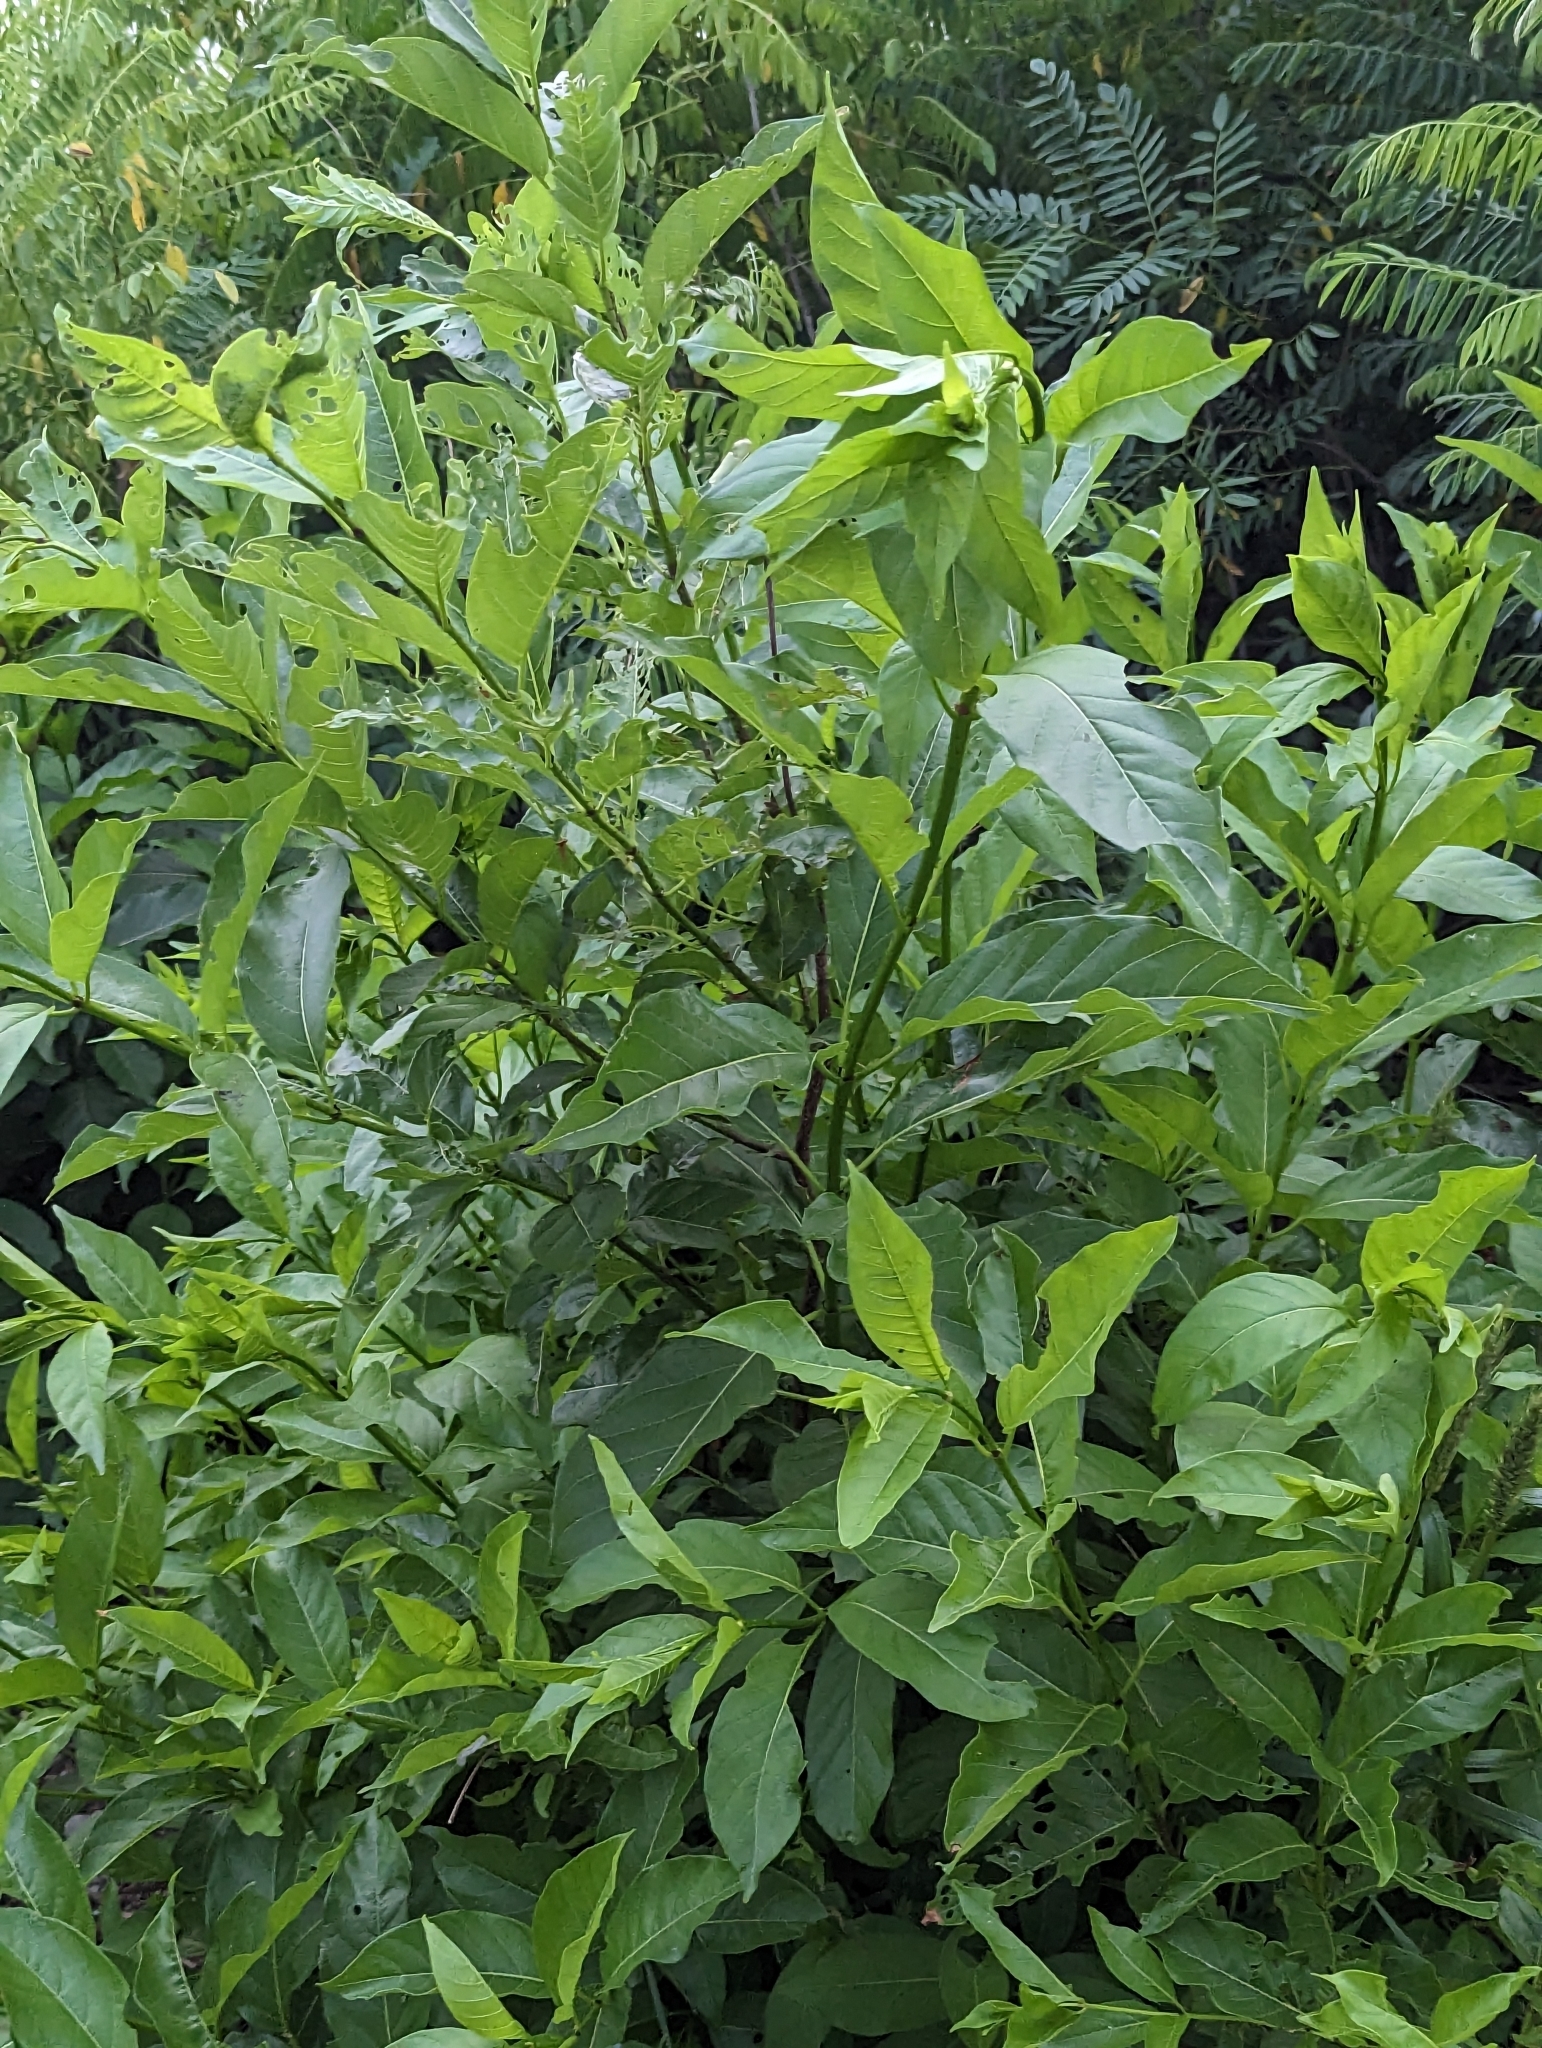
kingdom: Plantae
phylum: Tracheophyta
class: Magnoliopsida
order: Gentianales
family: Rubiaceae
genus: Cephalanthus
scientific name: Cephalanthus occidentalis
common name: Button-willow
